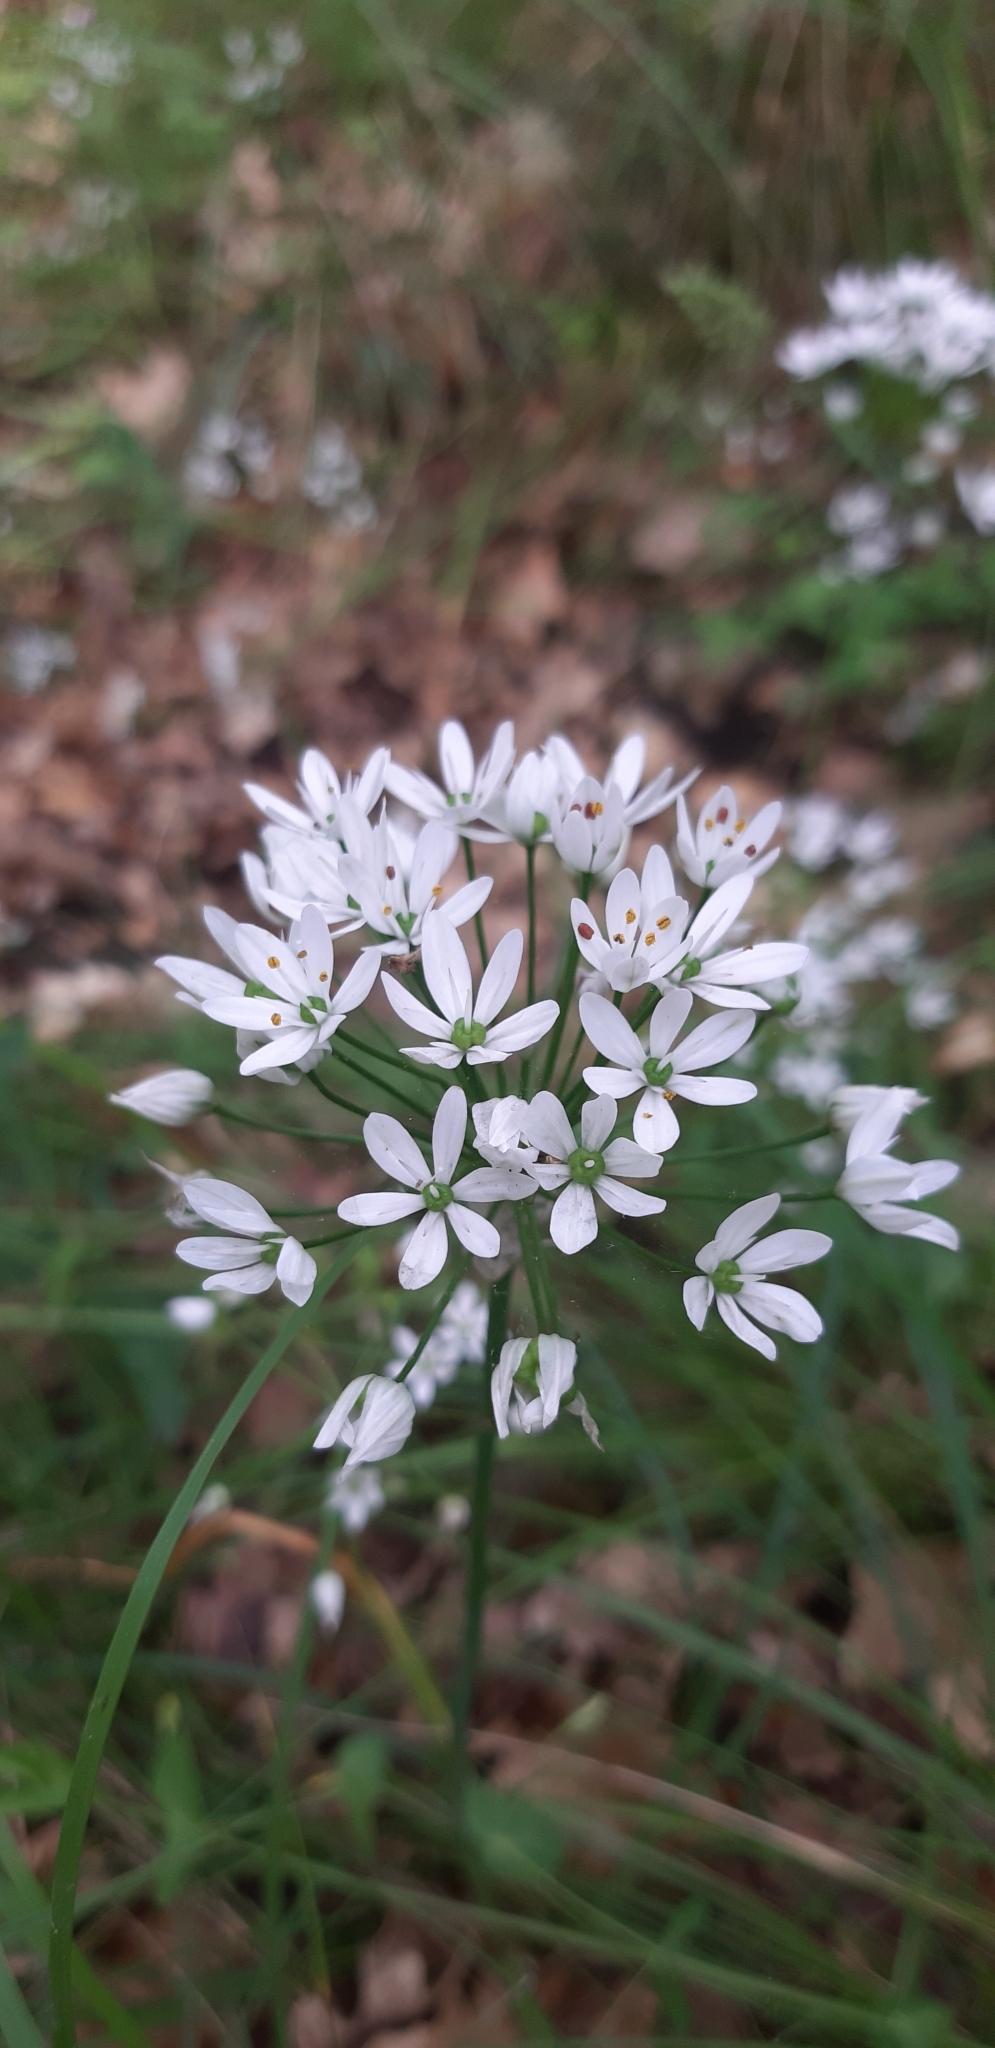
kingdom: Plantae
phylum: Tracheophyta
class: Liliopsida
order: Asparagales
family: Amaryllidaceae
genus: Allium
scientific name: Allium subhirsutum
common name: Hairy garlic
